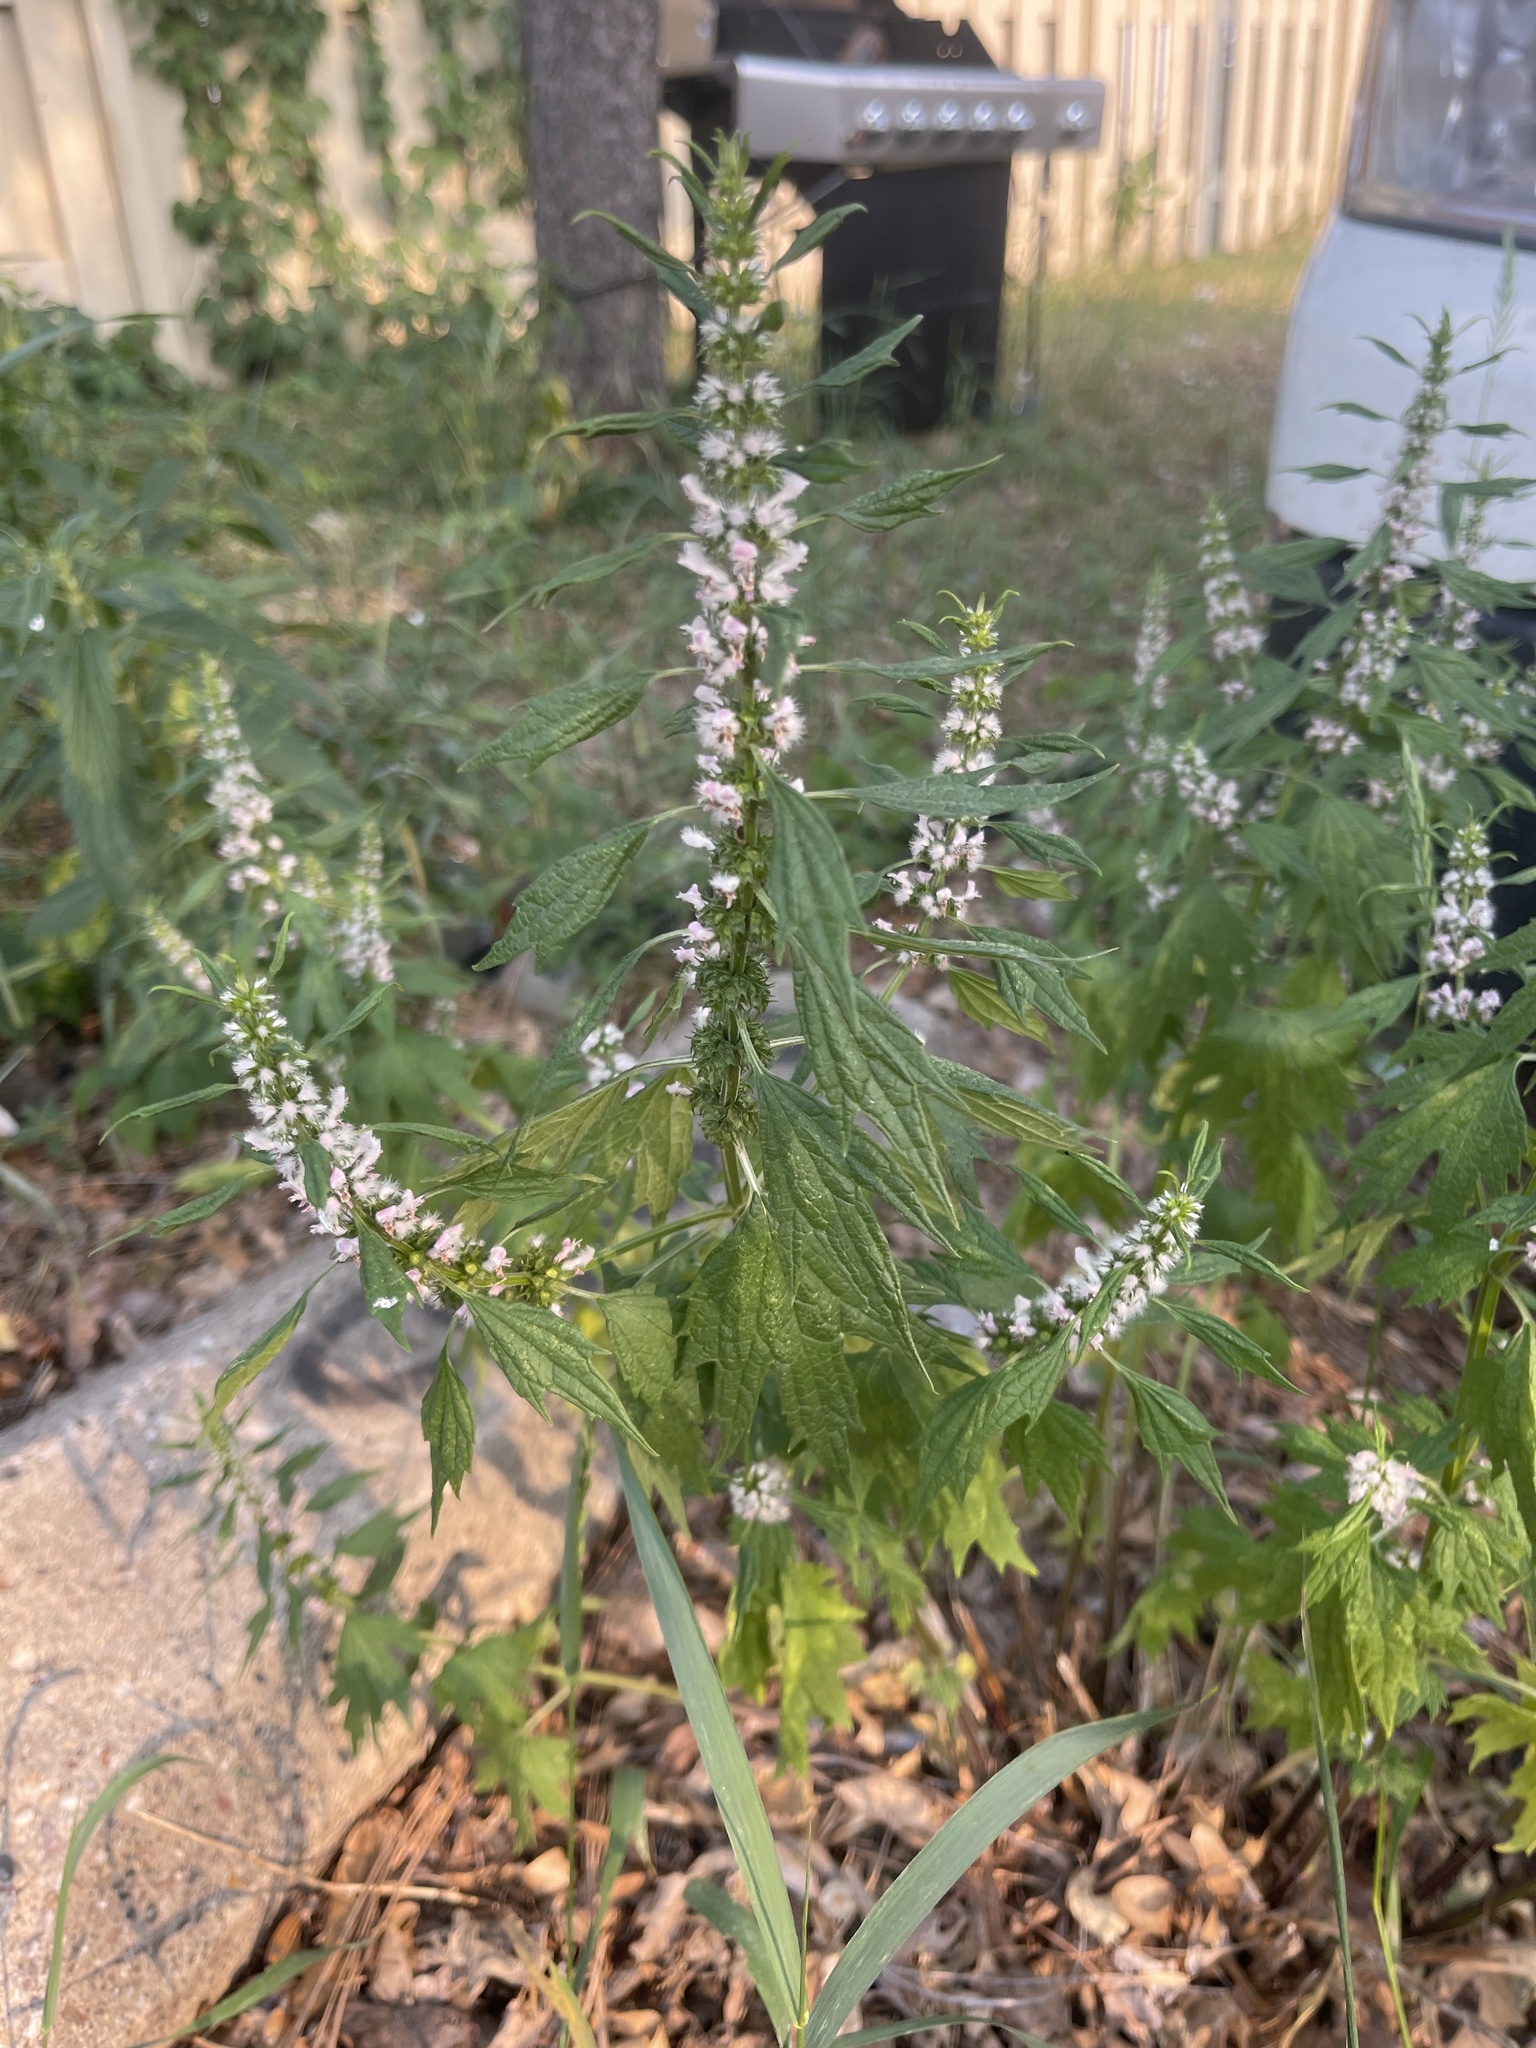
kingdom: Plantae
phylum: Tracheophyta
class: Magnoliopsida
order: Lamiales
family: Lamiaceae
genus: Leonurus
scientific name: Leonurus cardiaca
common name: Motherwort
